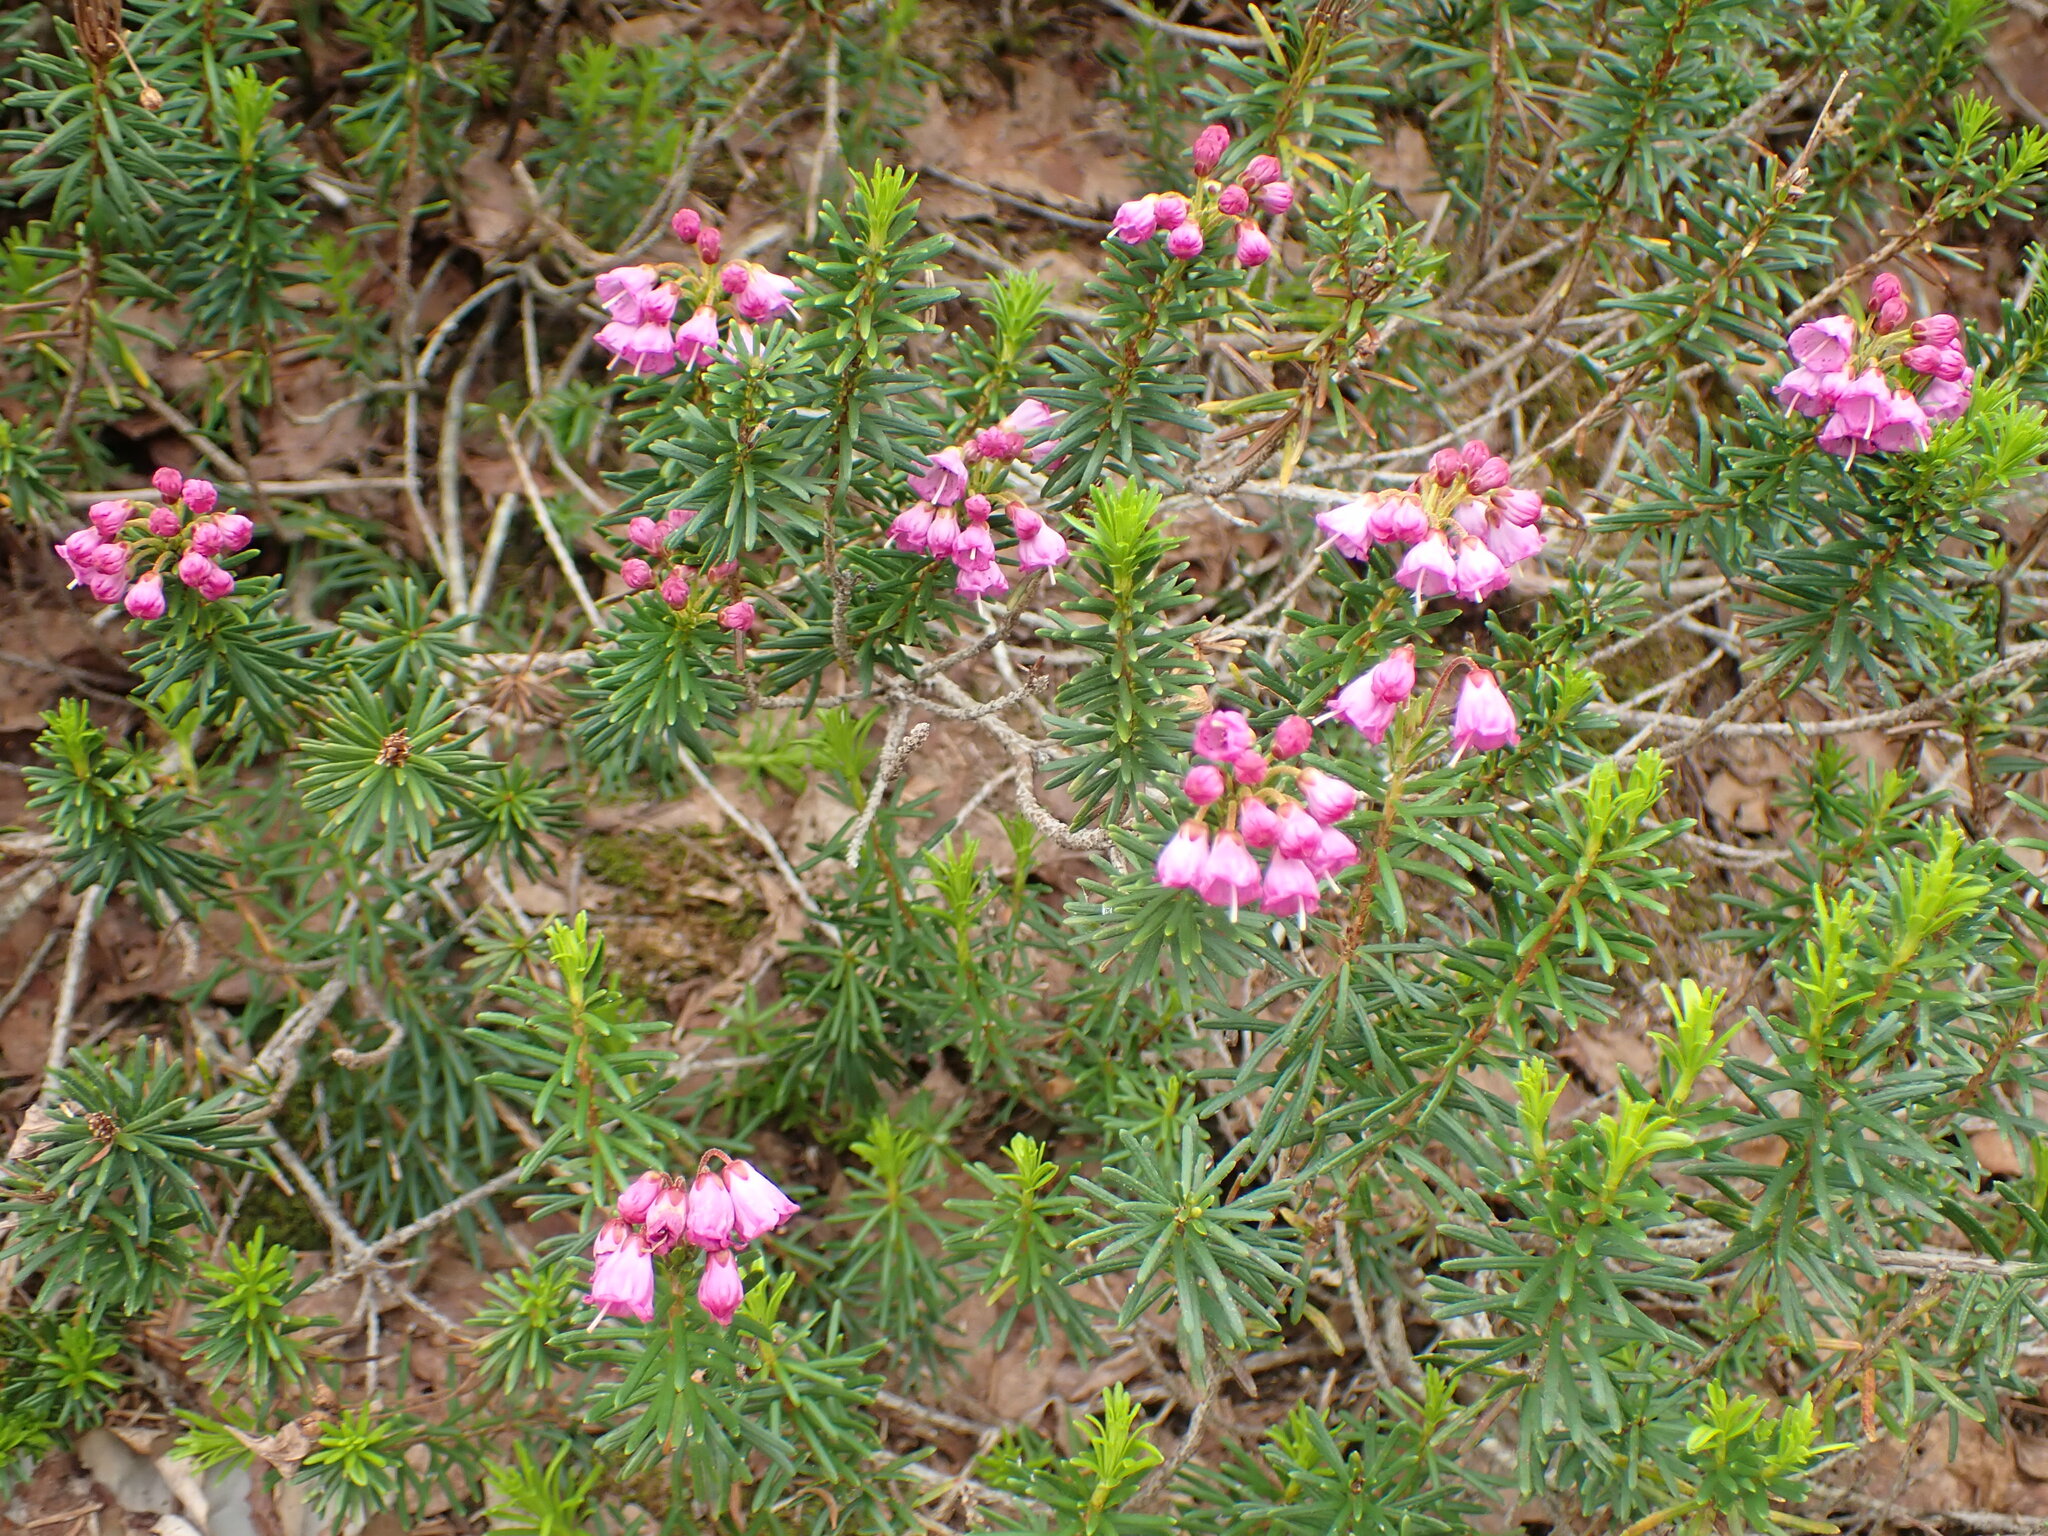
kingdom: Plantae
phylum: Tracheophyta
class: Magnoliopsida
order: Ericales
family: Ericaceae
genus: Phyllodoce
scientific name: Phyllodoce empetriformis
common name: Pink mountain heather
